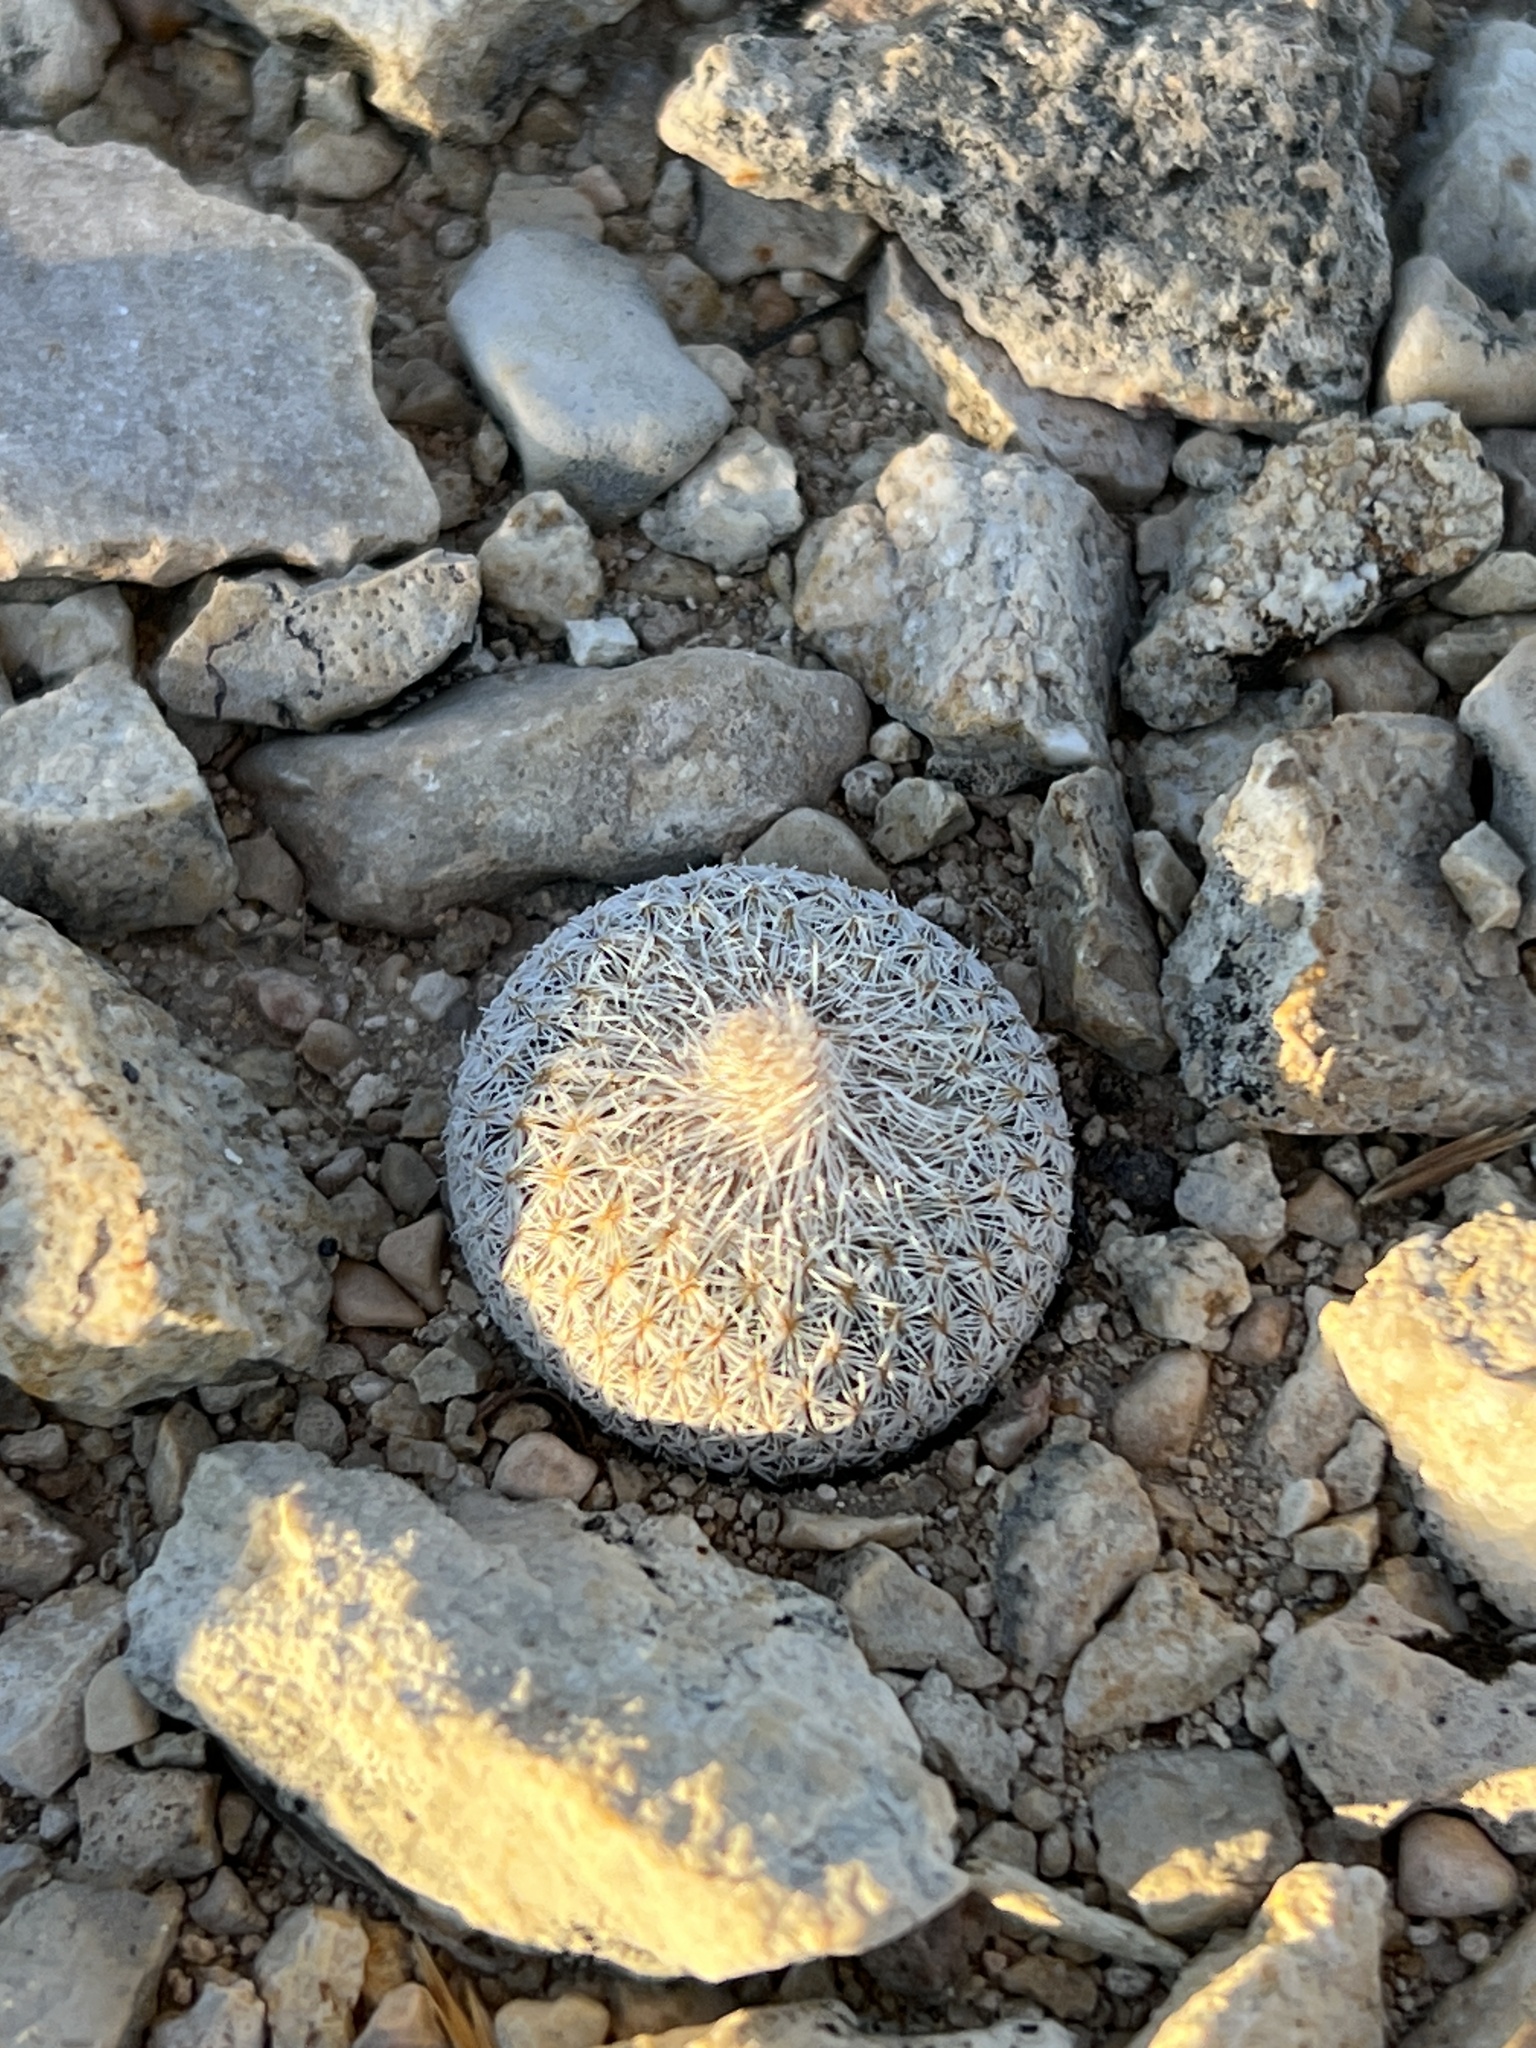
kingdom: Plantae
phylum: Tracheophyta
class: Magnoliopsida
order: Caryophyllales
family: Cactaceae
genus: Epithelantha
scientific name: Epithelantha micromeris
